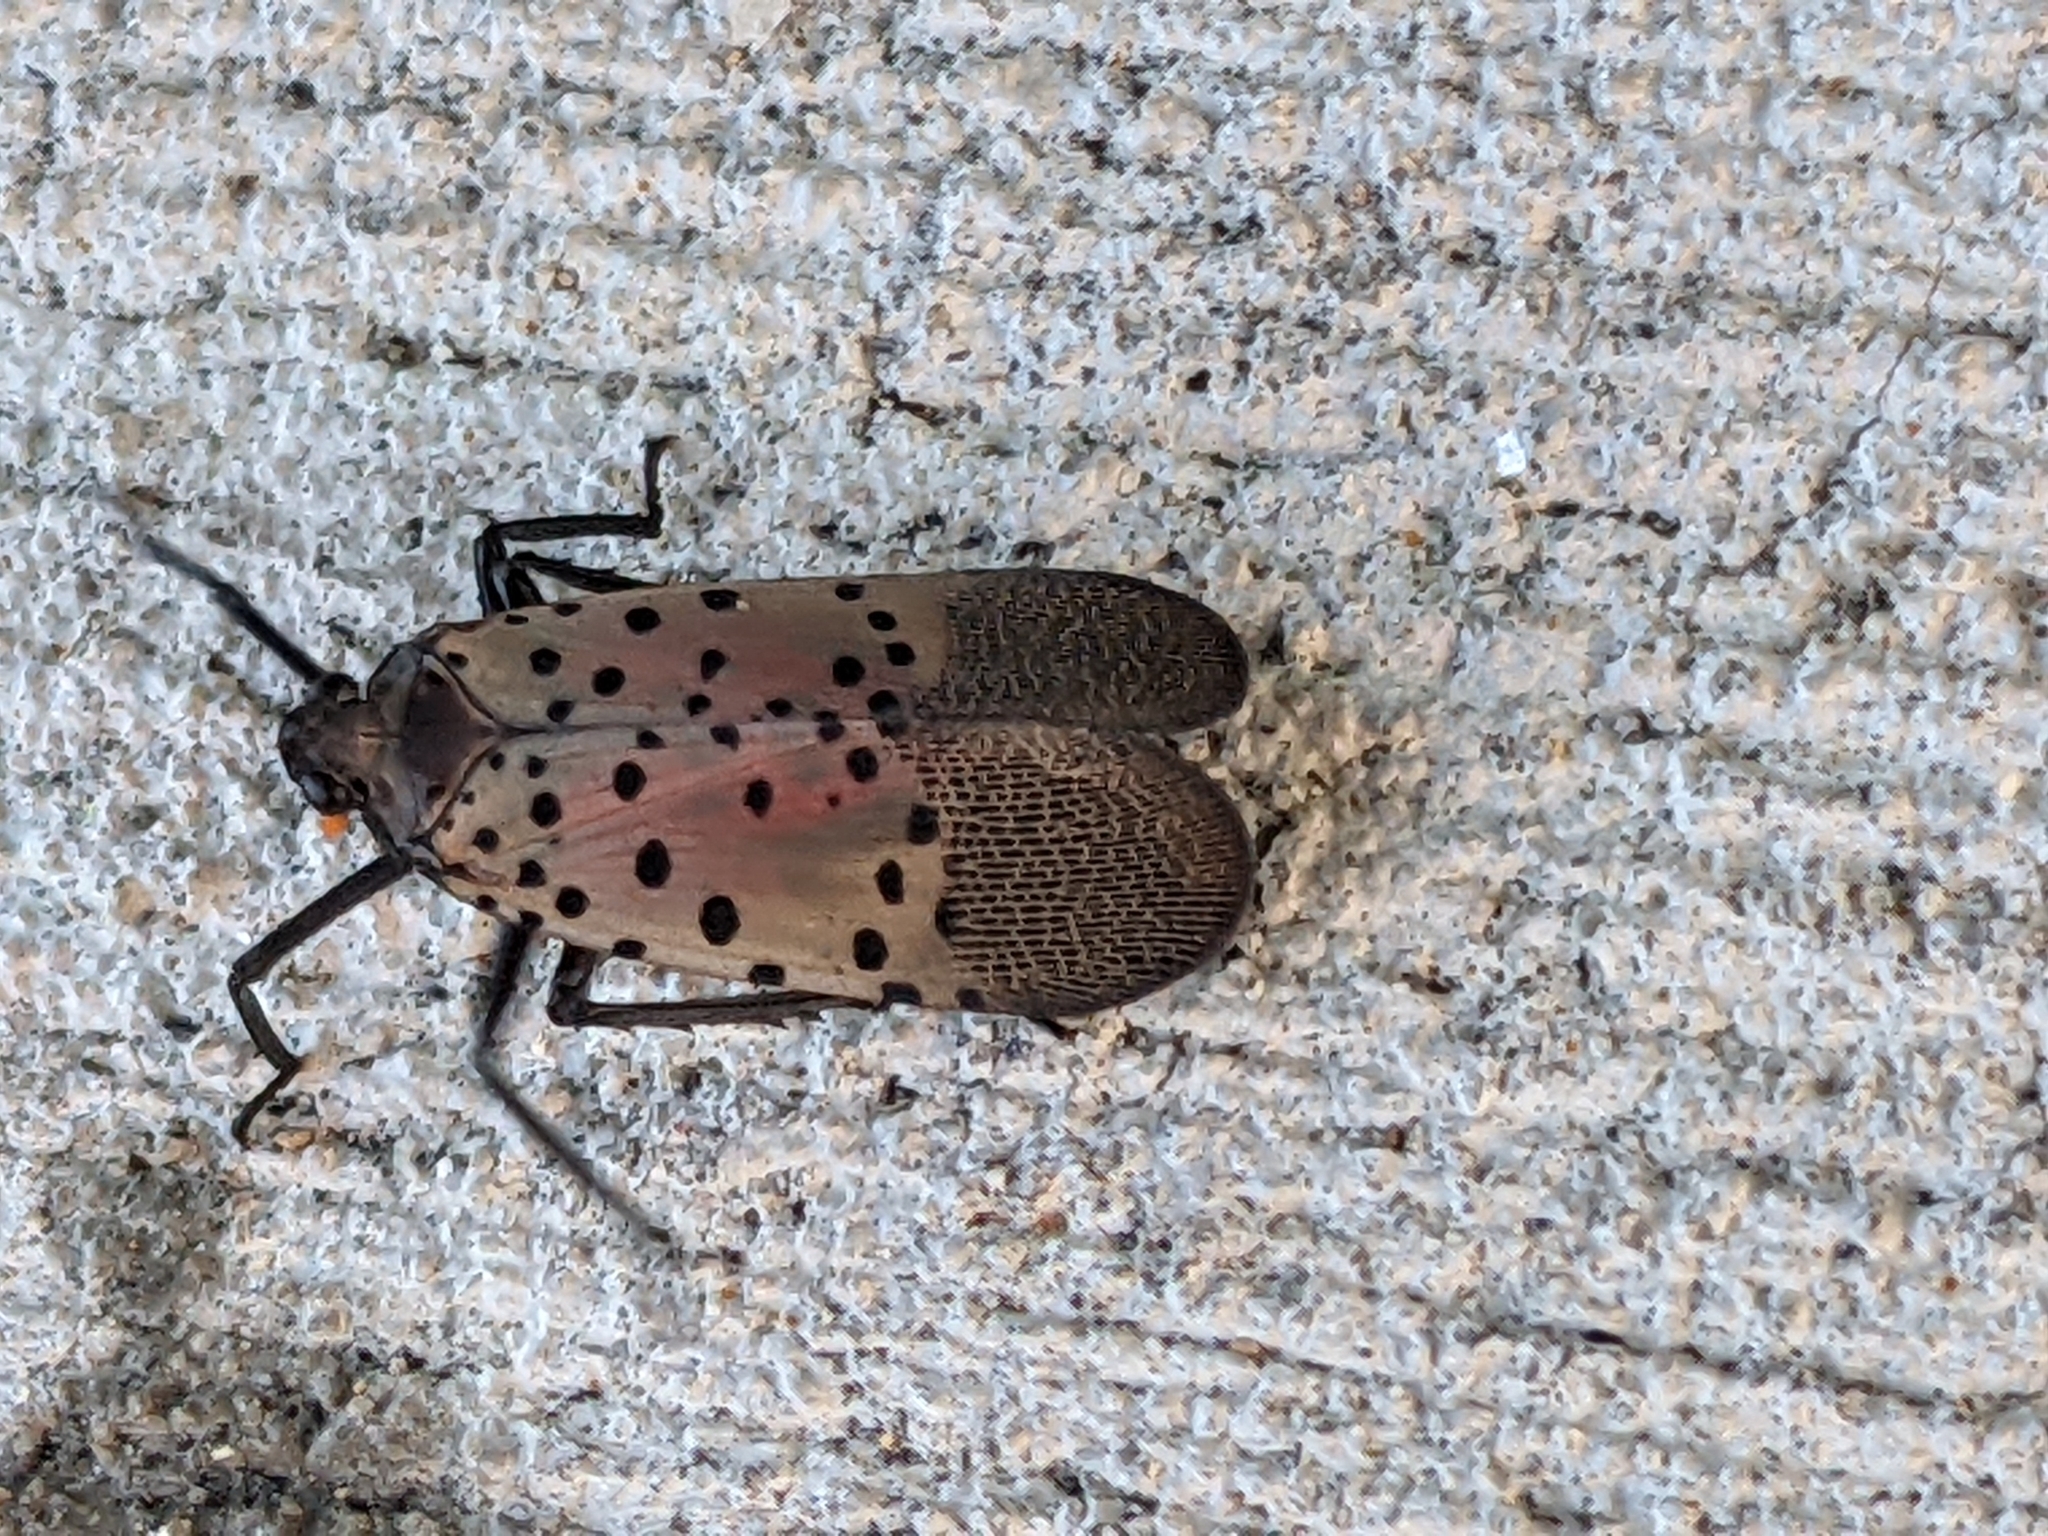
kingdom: Animalia
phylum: Arthropoda
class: Insecta
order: Hemiptera
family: Fulgoridae
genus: Lycorma
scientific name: Lycorma delicatula
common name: Spotted lanternfly
